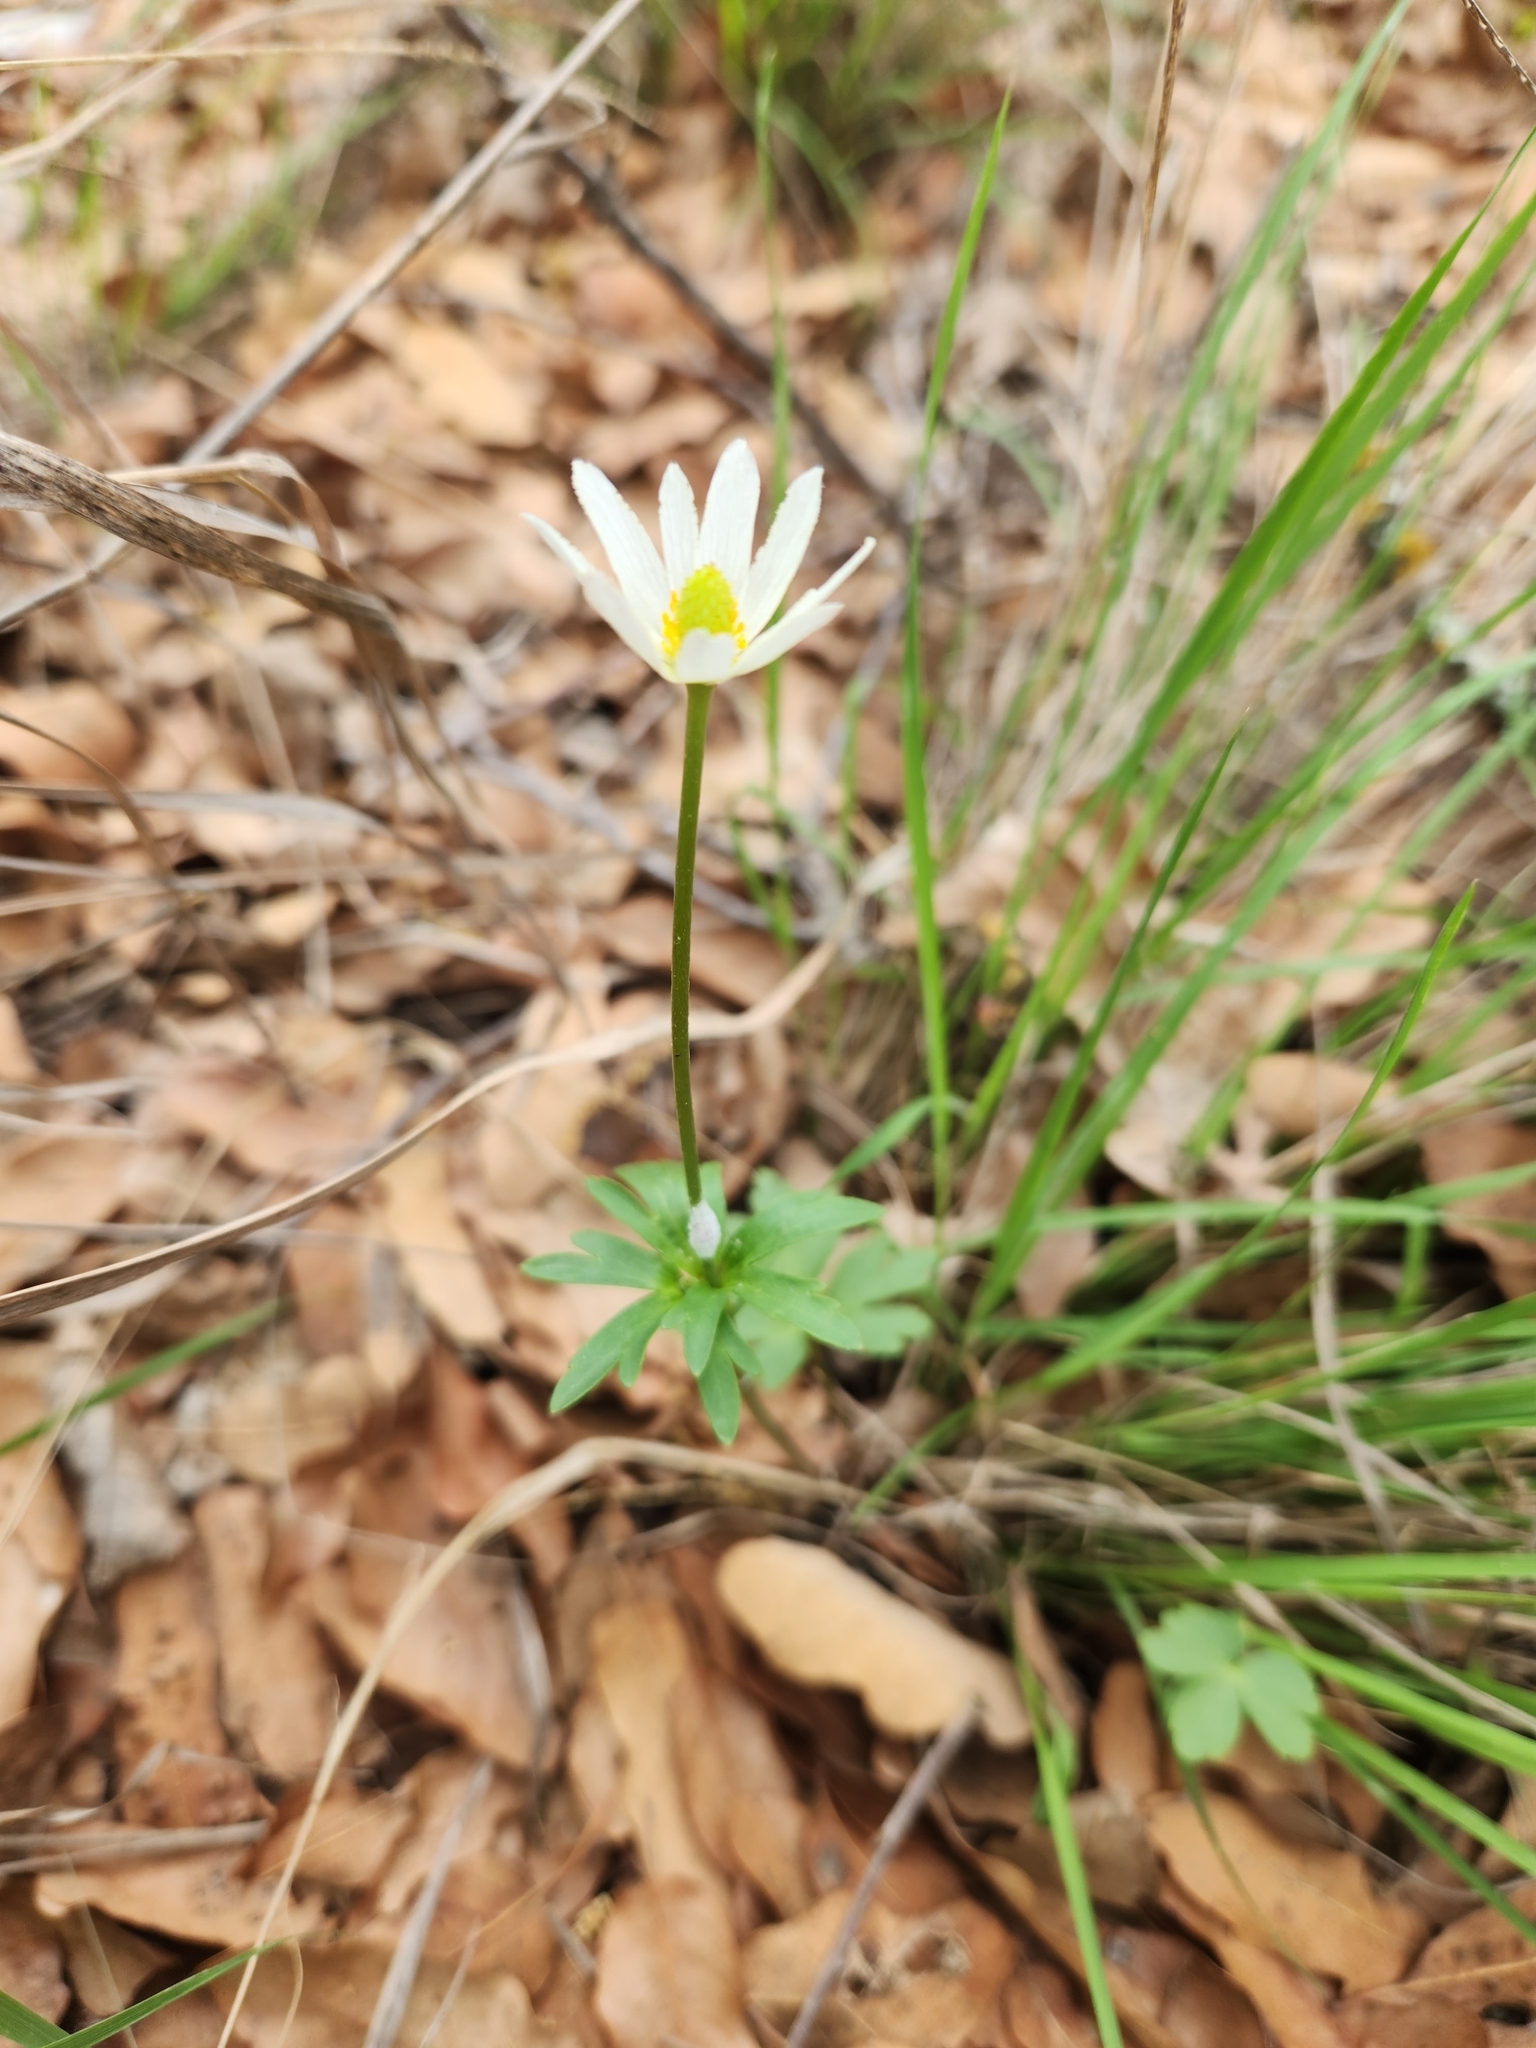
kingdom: Plantae
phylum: Tracheophyta
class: Magnoliopsida
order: Ranunculales
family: Ranunculaceae
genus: Anemone
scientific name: Anemone edwardsiana
